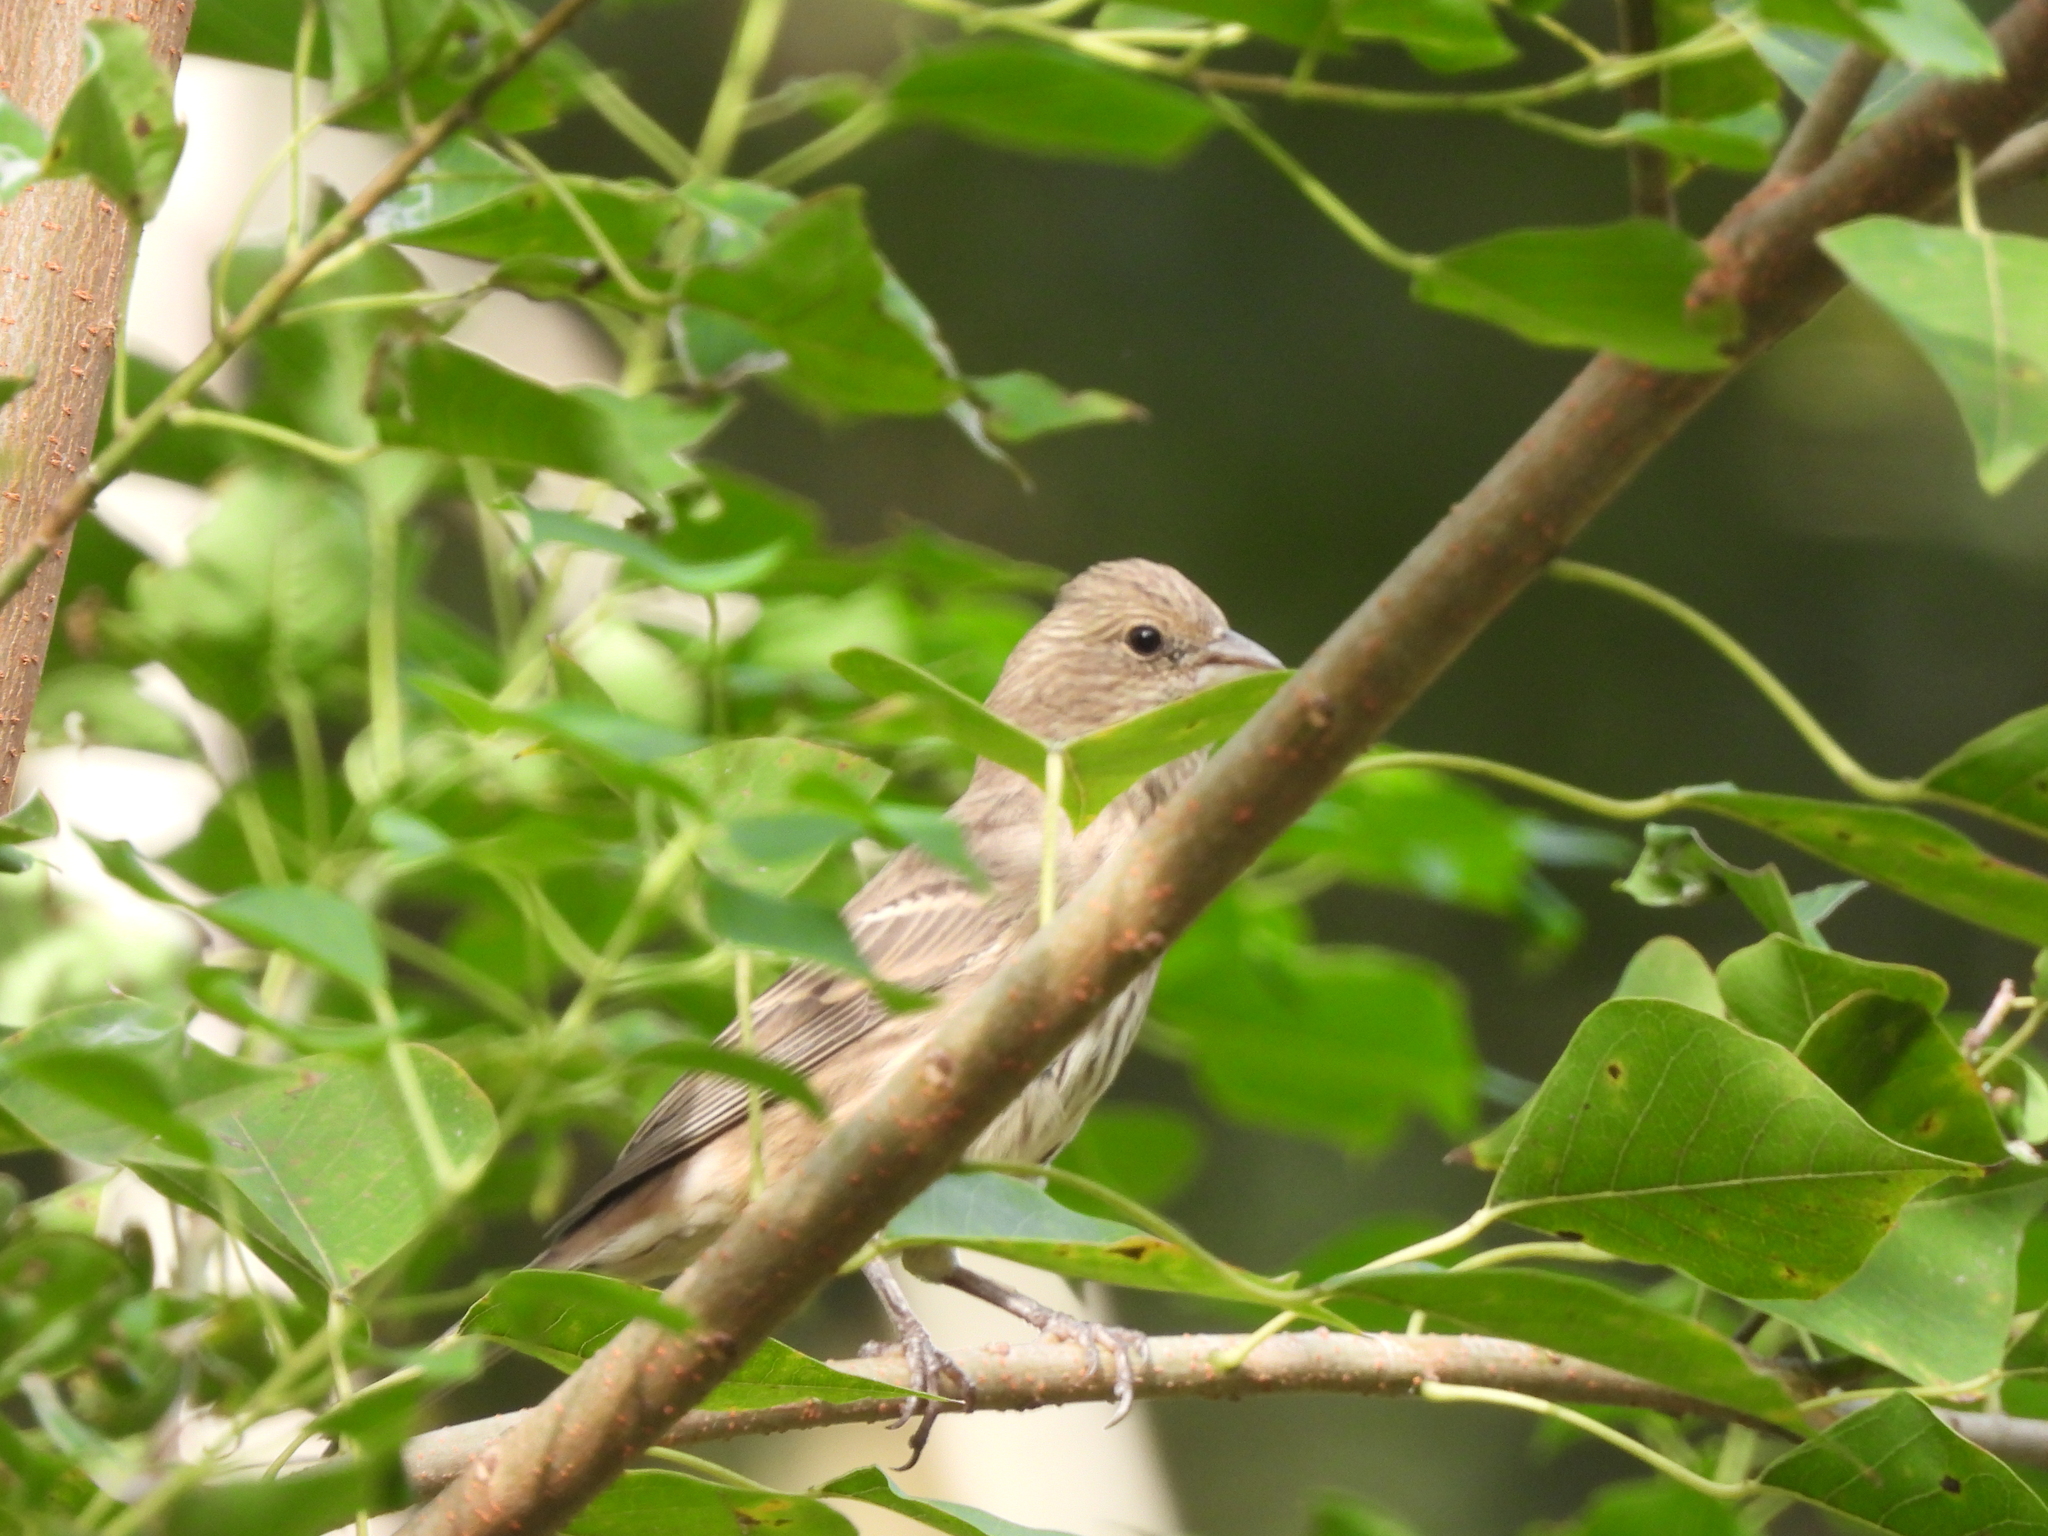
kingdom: Animalia
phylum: Chordata
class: Aves
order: Passeriformes
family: Fringillidae
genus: Haemorhous
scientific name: Haemorhous mexicanus
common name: House finch
